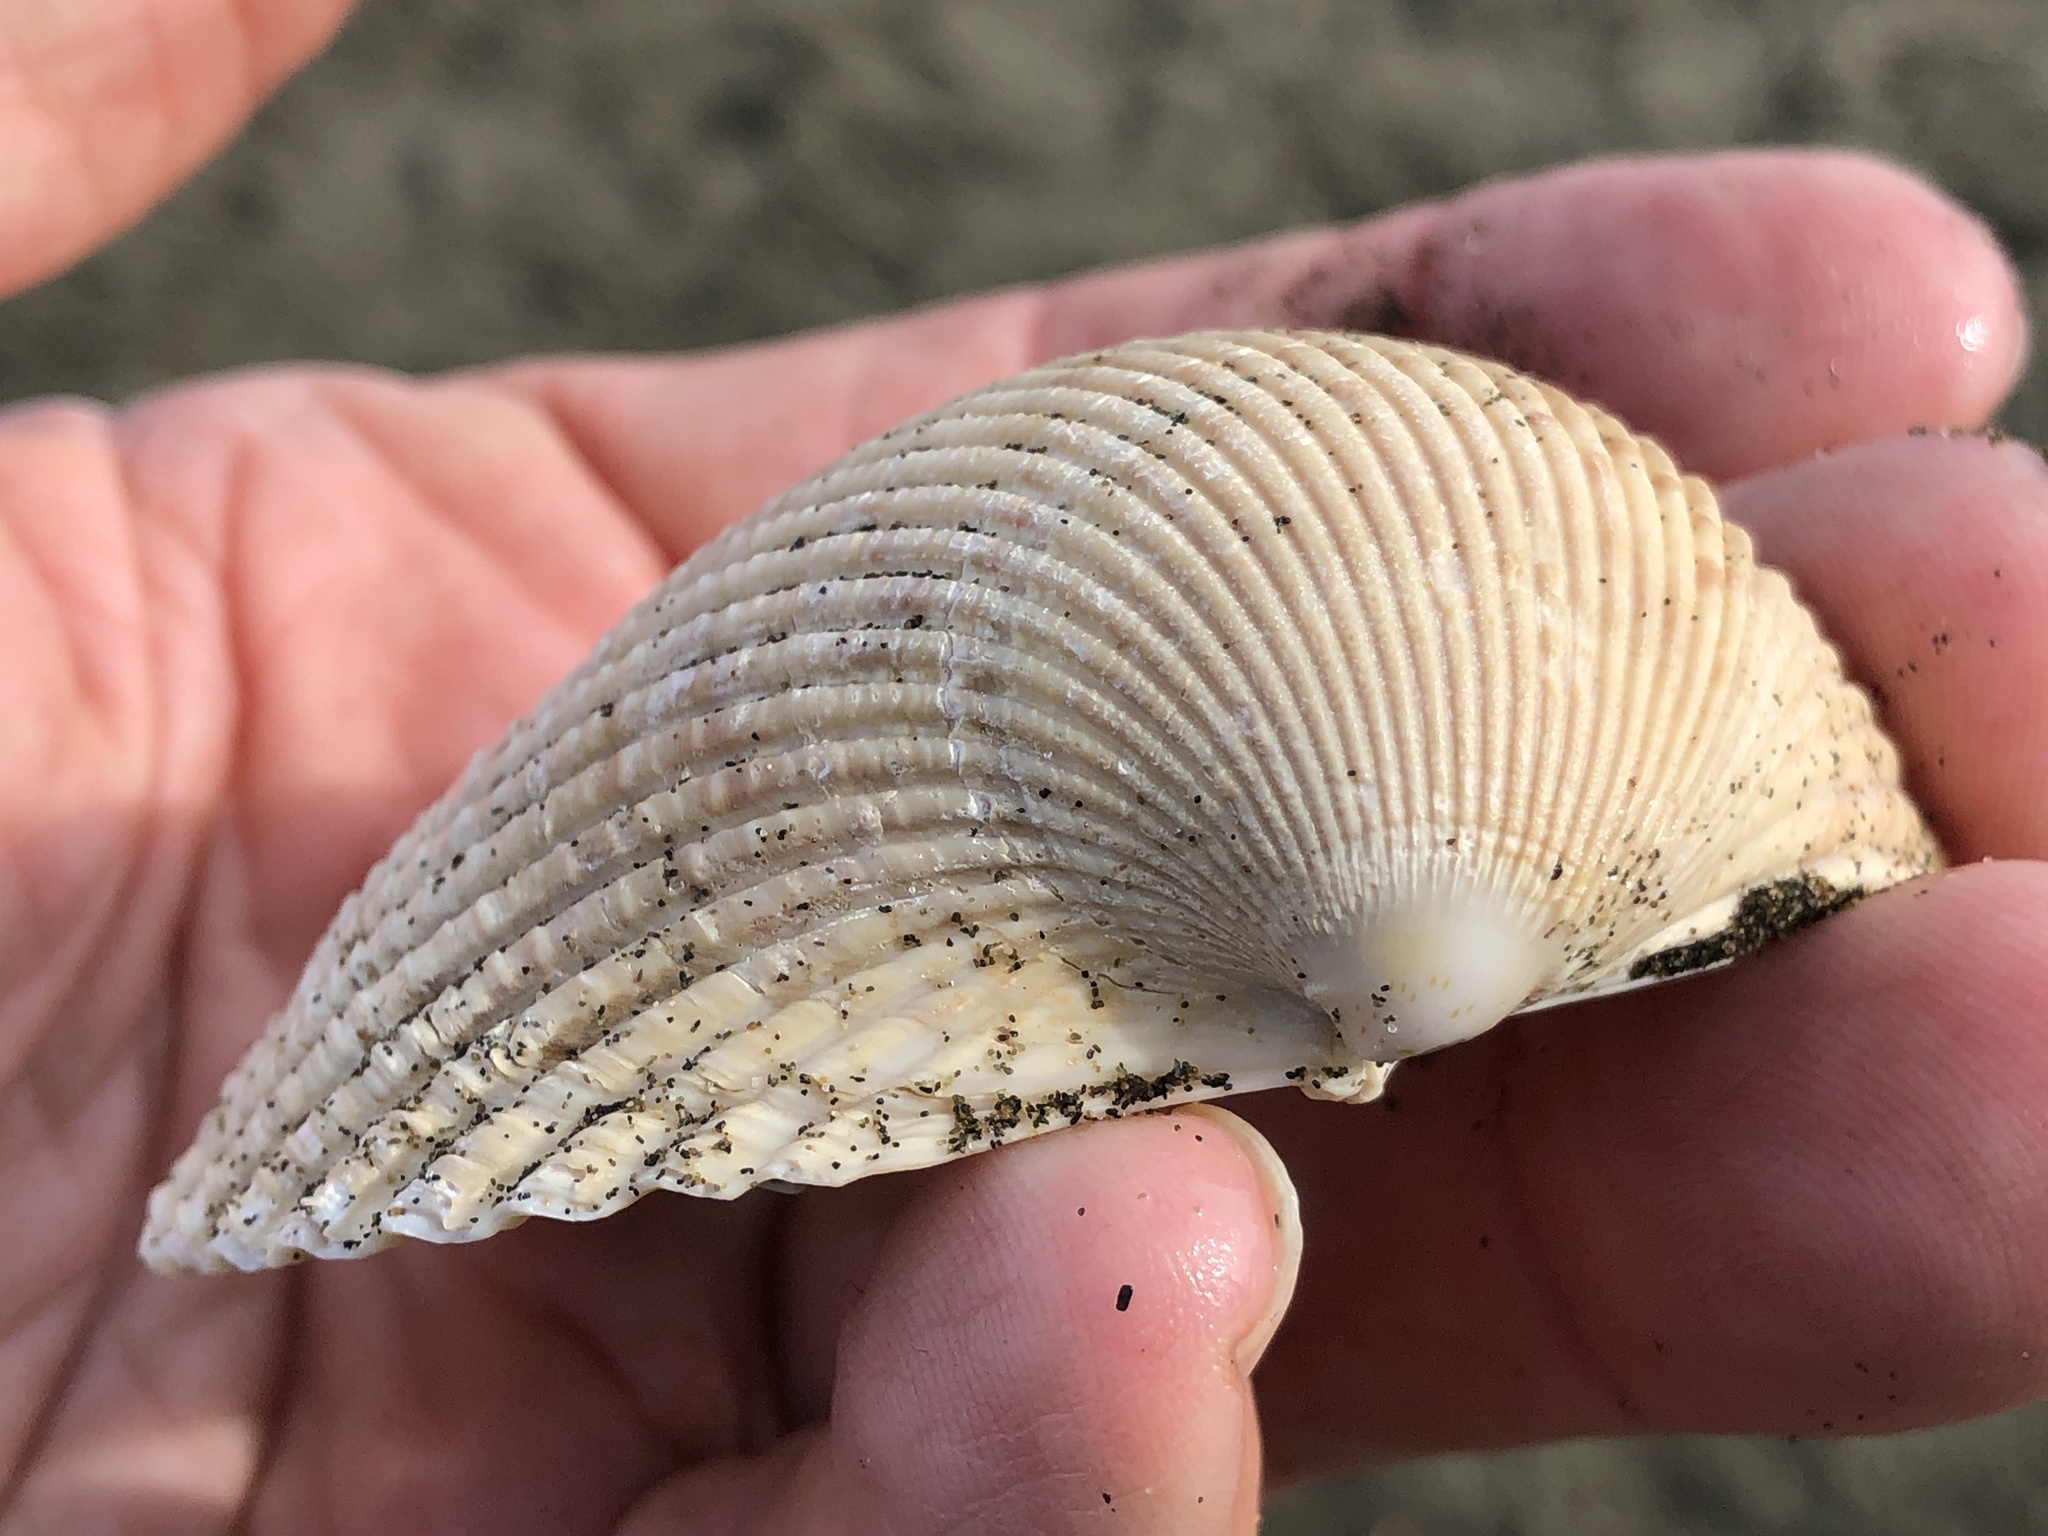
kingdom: Animalia
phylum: Mollusca
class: Bivalvia
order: Cardiida
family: Cardiidae
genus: Clinocardium
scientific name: Clinocardium nuttallii
